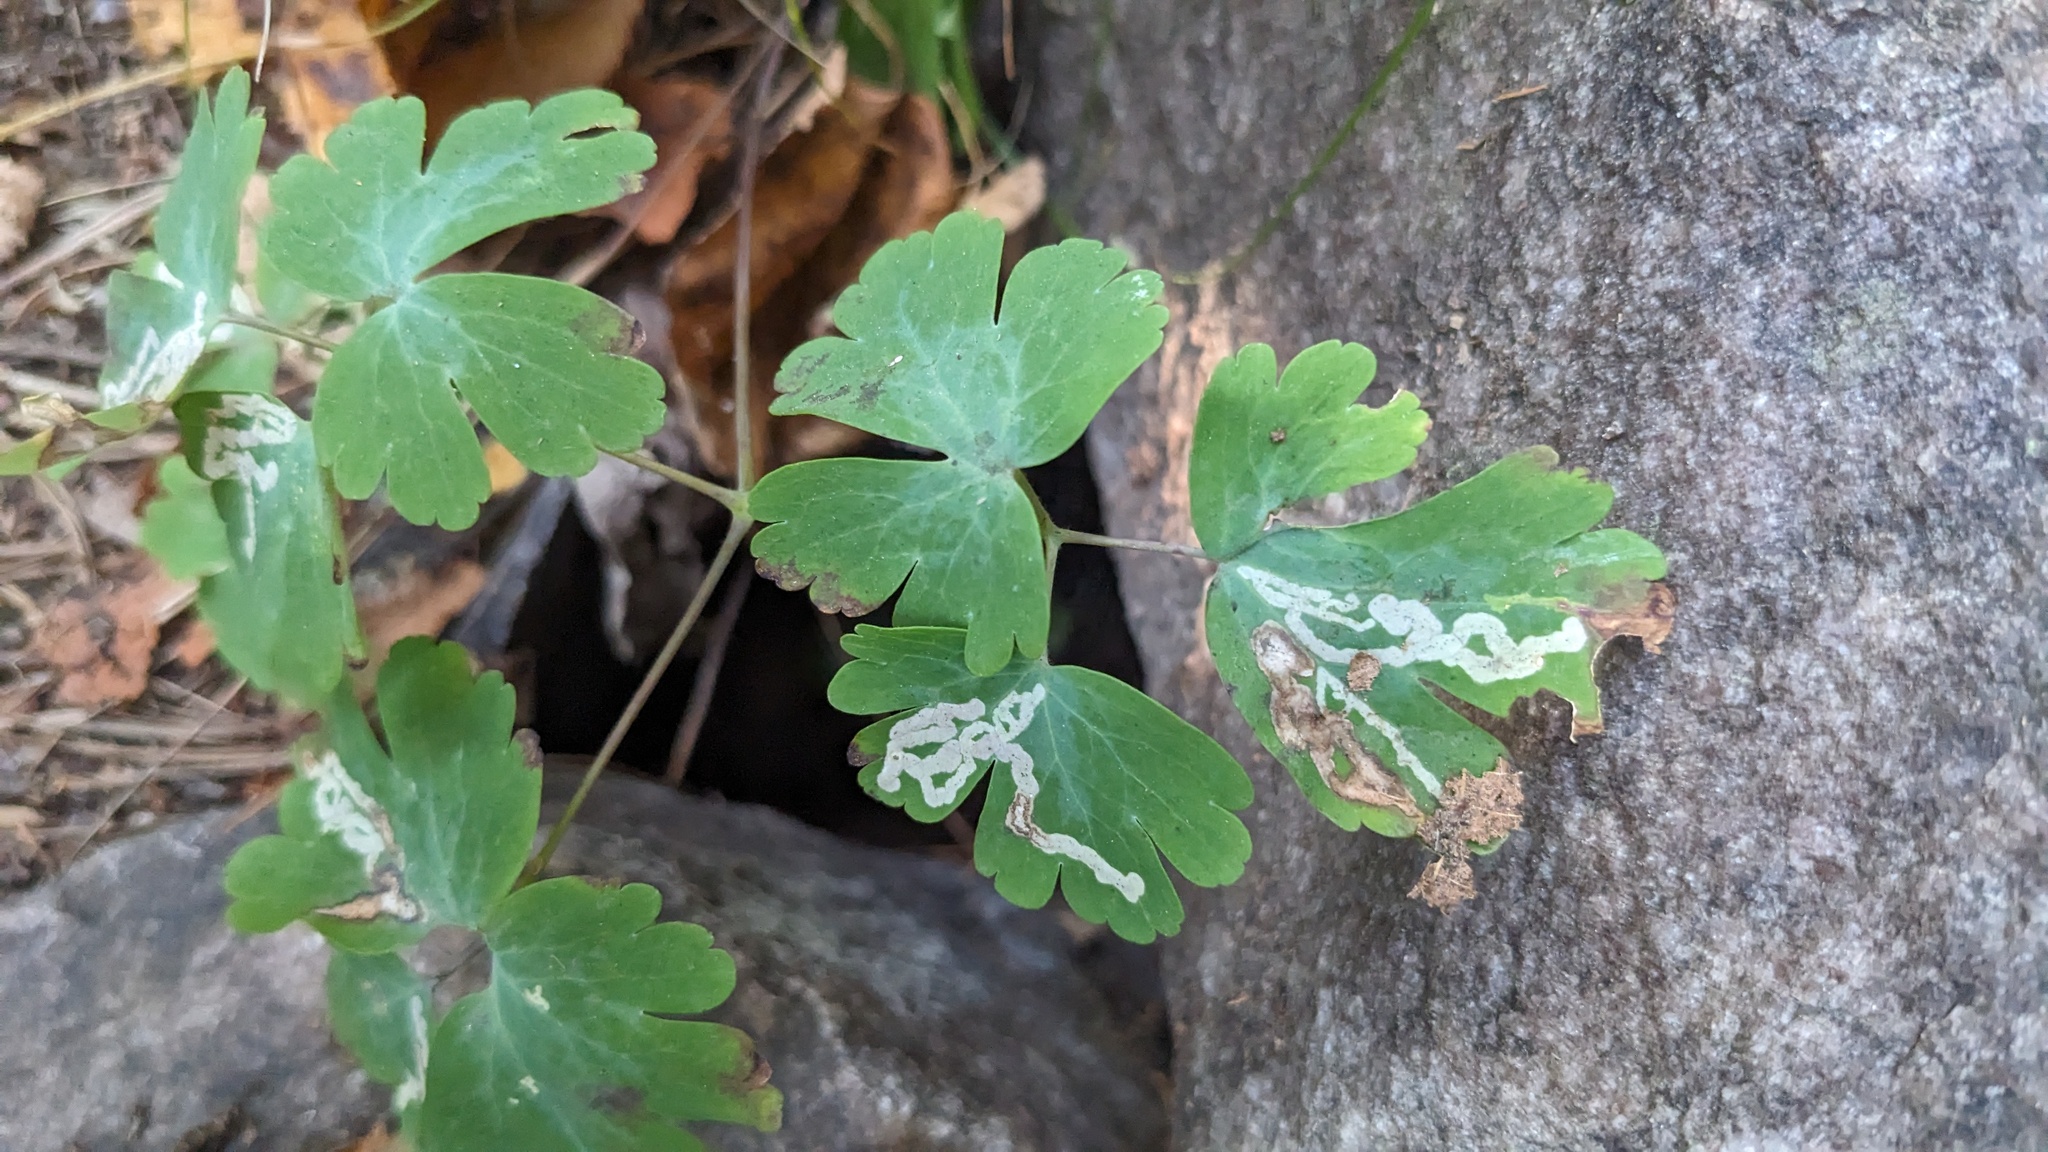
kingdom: Plantae
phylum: Tracheophyta
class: Magnoliopsida
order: Ranunculales
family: Ranunculaceae
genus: Aquilegia
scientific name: Aquilegia canadensis
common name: American columbine
